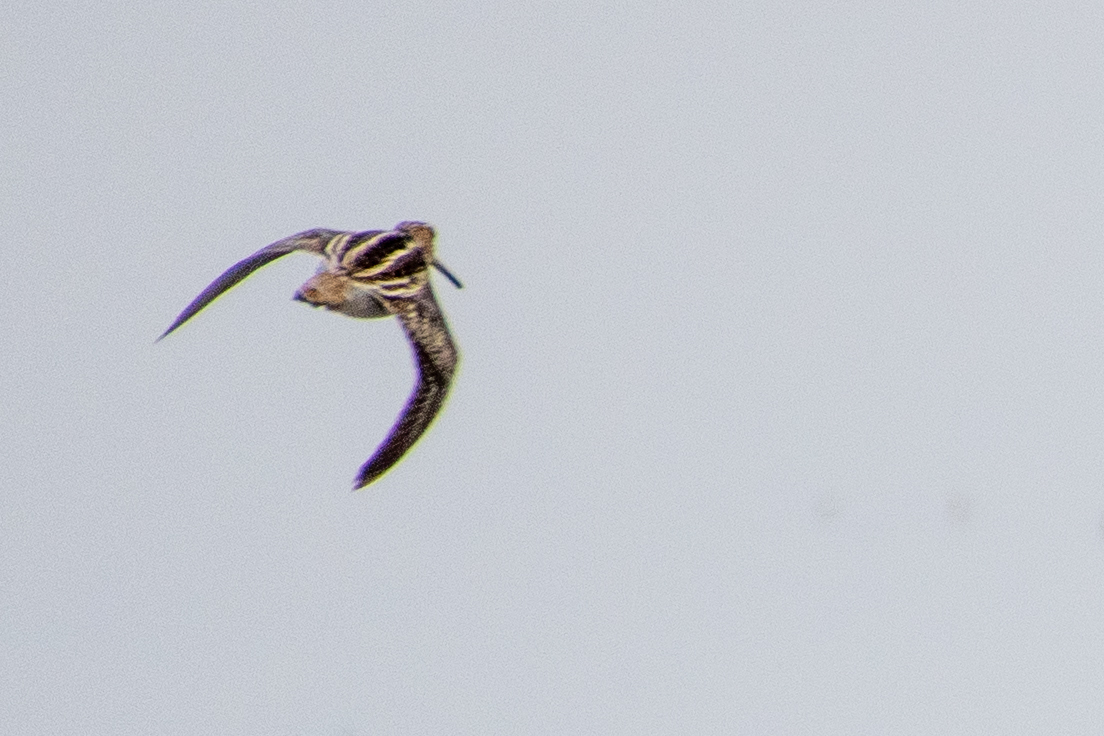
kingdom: Animalia
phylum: Chordata
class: Aves
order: Charadriiformes
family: Scolopacidae
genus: Gallinago
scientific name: Gallinago delicata
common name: Wilson's snipe
